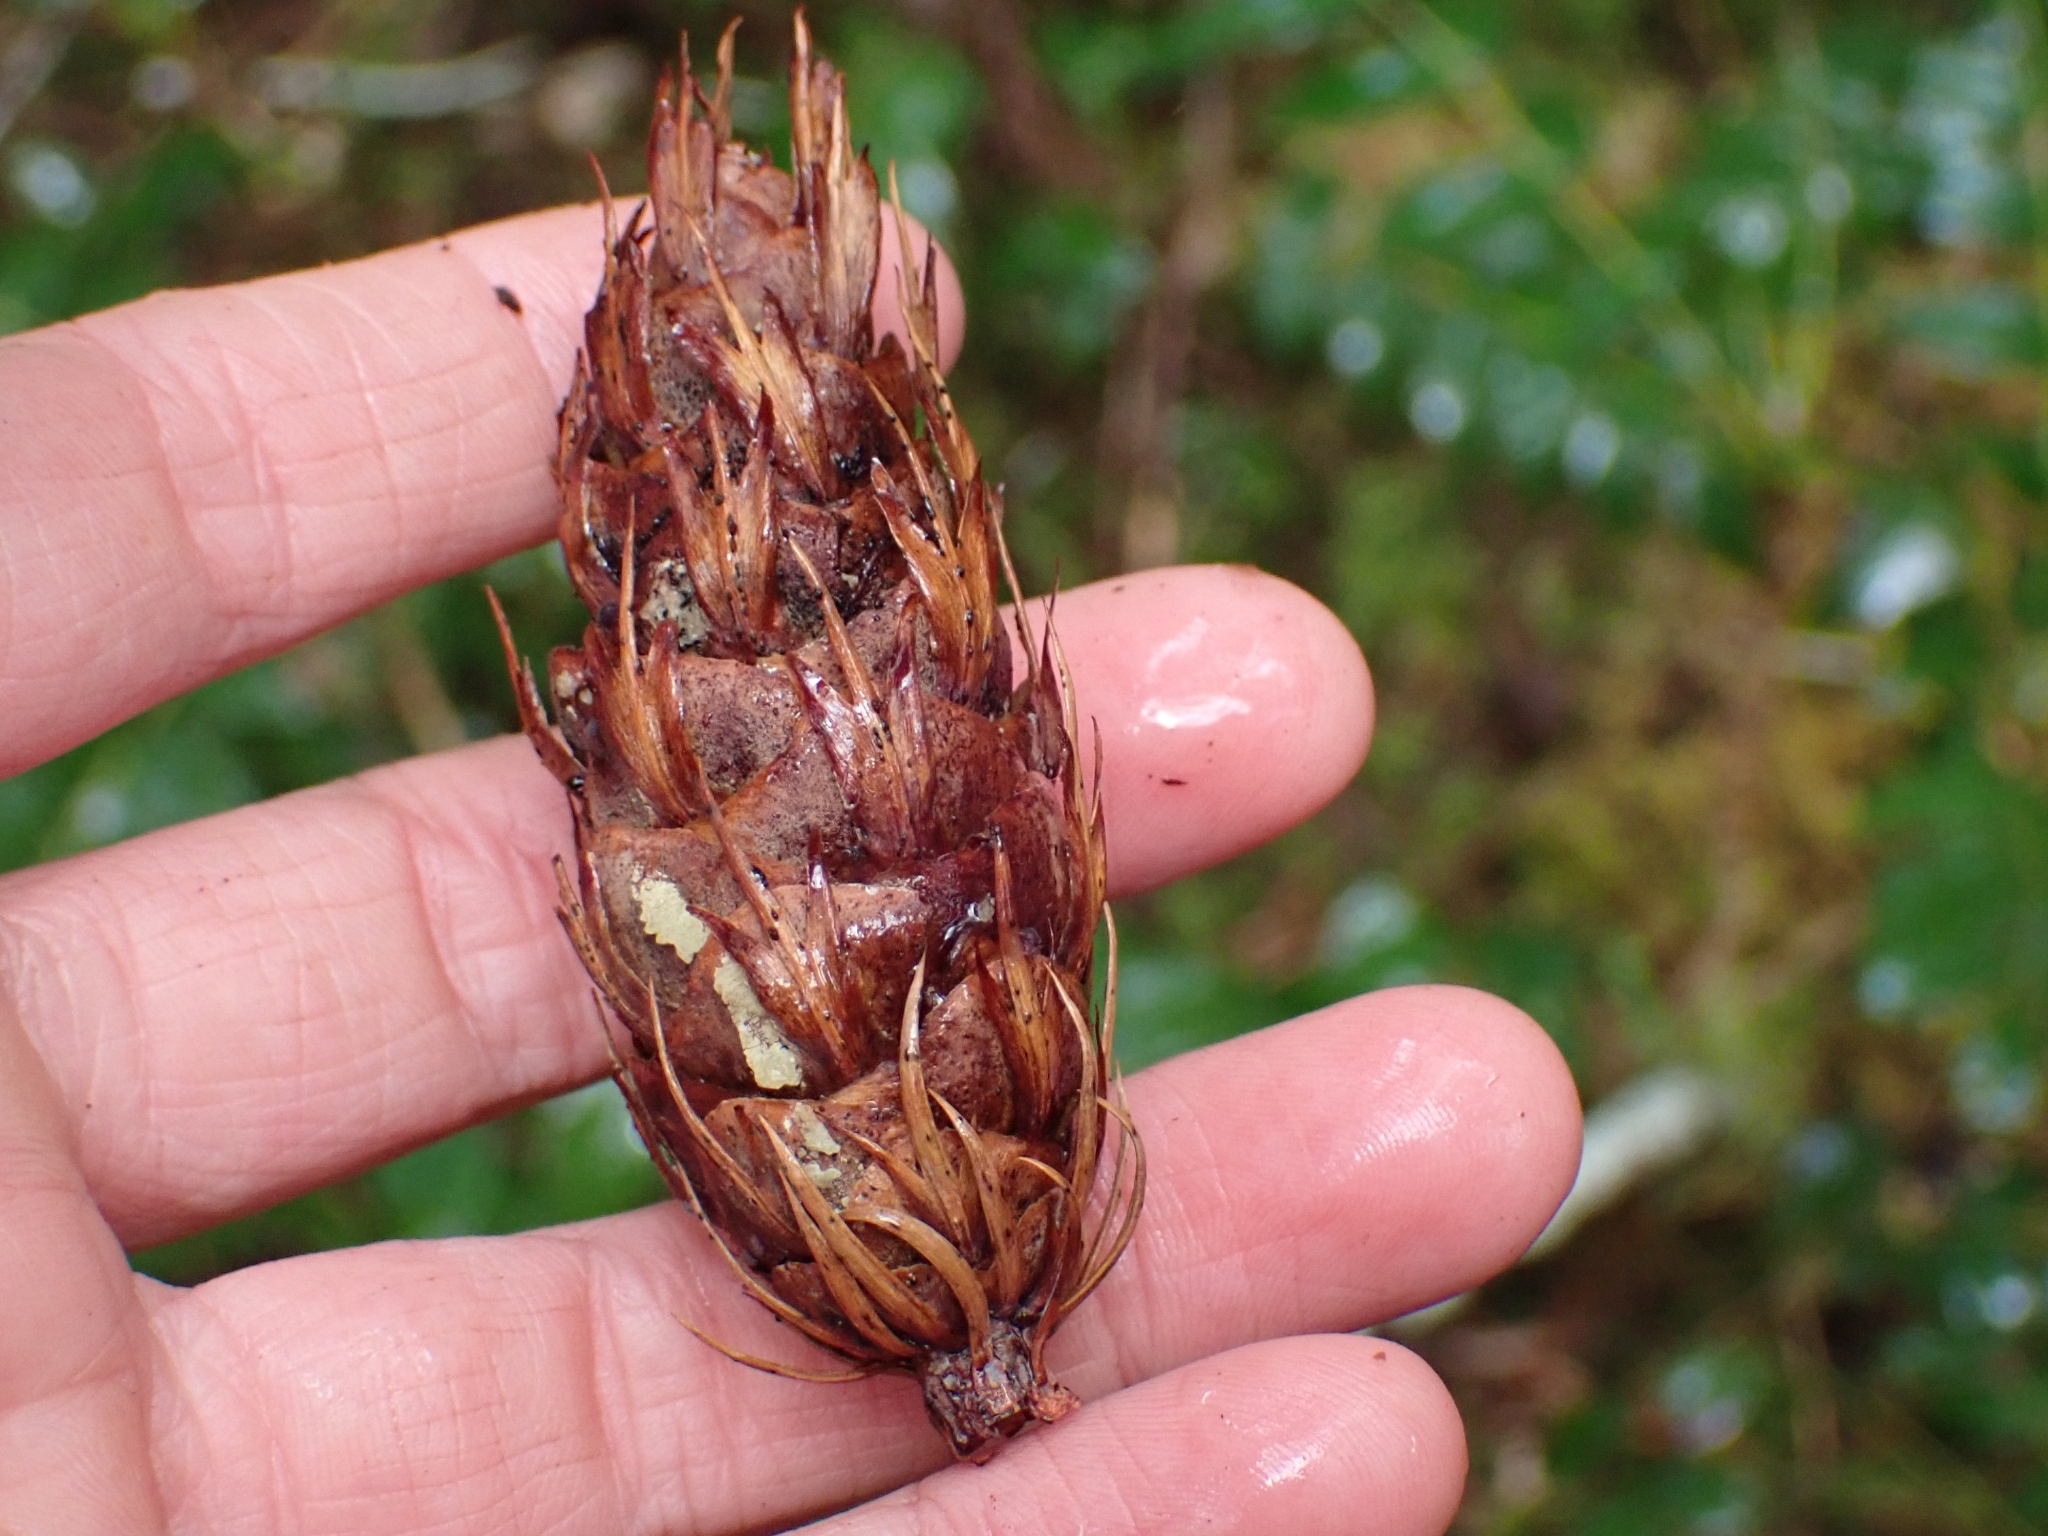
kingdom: Plantae
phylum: Tracheophyta
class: Pinopsida
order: Pinales
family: Pinaceae
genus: Pseudotsuga
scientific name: Pseudotsuga menziesii
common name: Douglas fir
